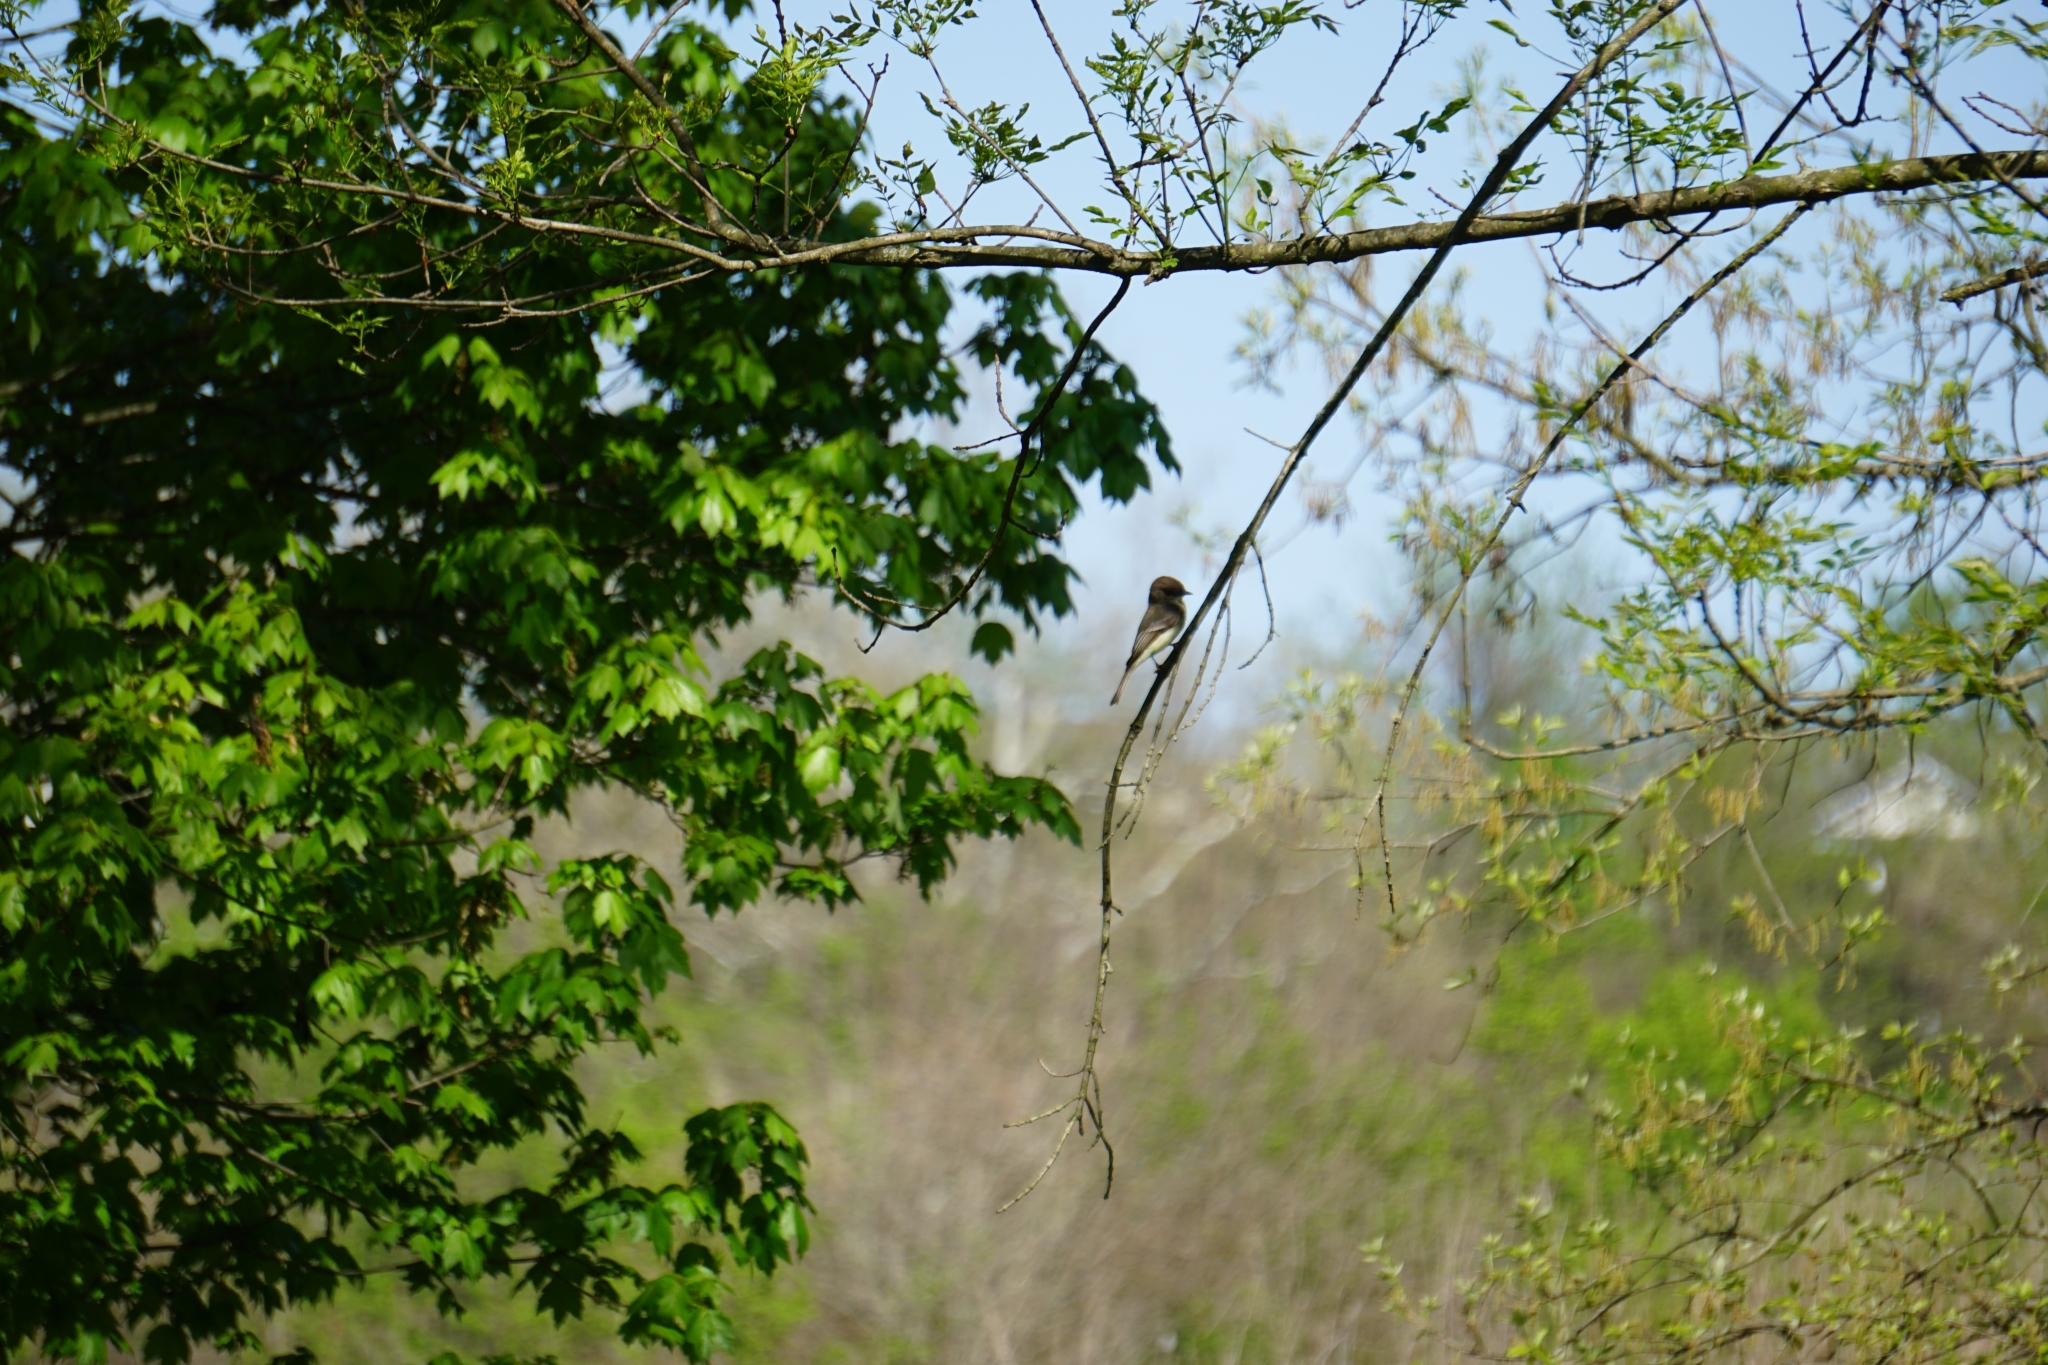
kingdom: Animalia
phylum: Chordata
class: Aves
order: Passeriformes
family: Tyrannidae
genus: Sayornis
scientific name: Sayornis phoebe
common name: Eastern phoebe
